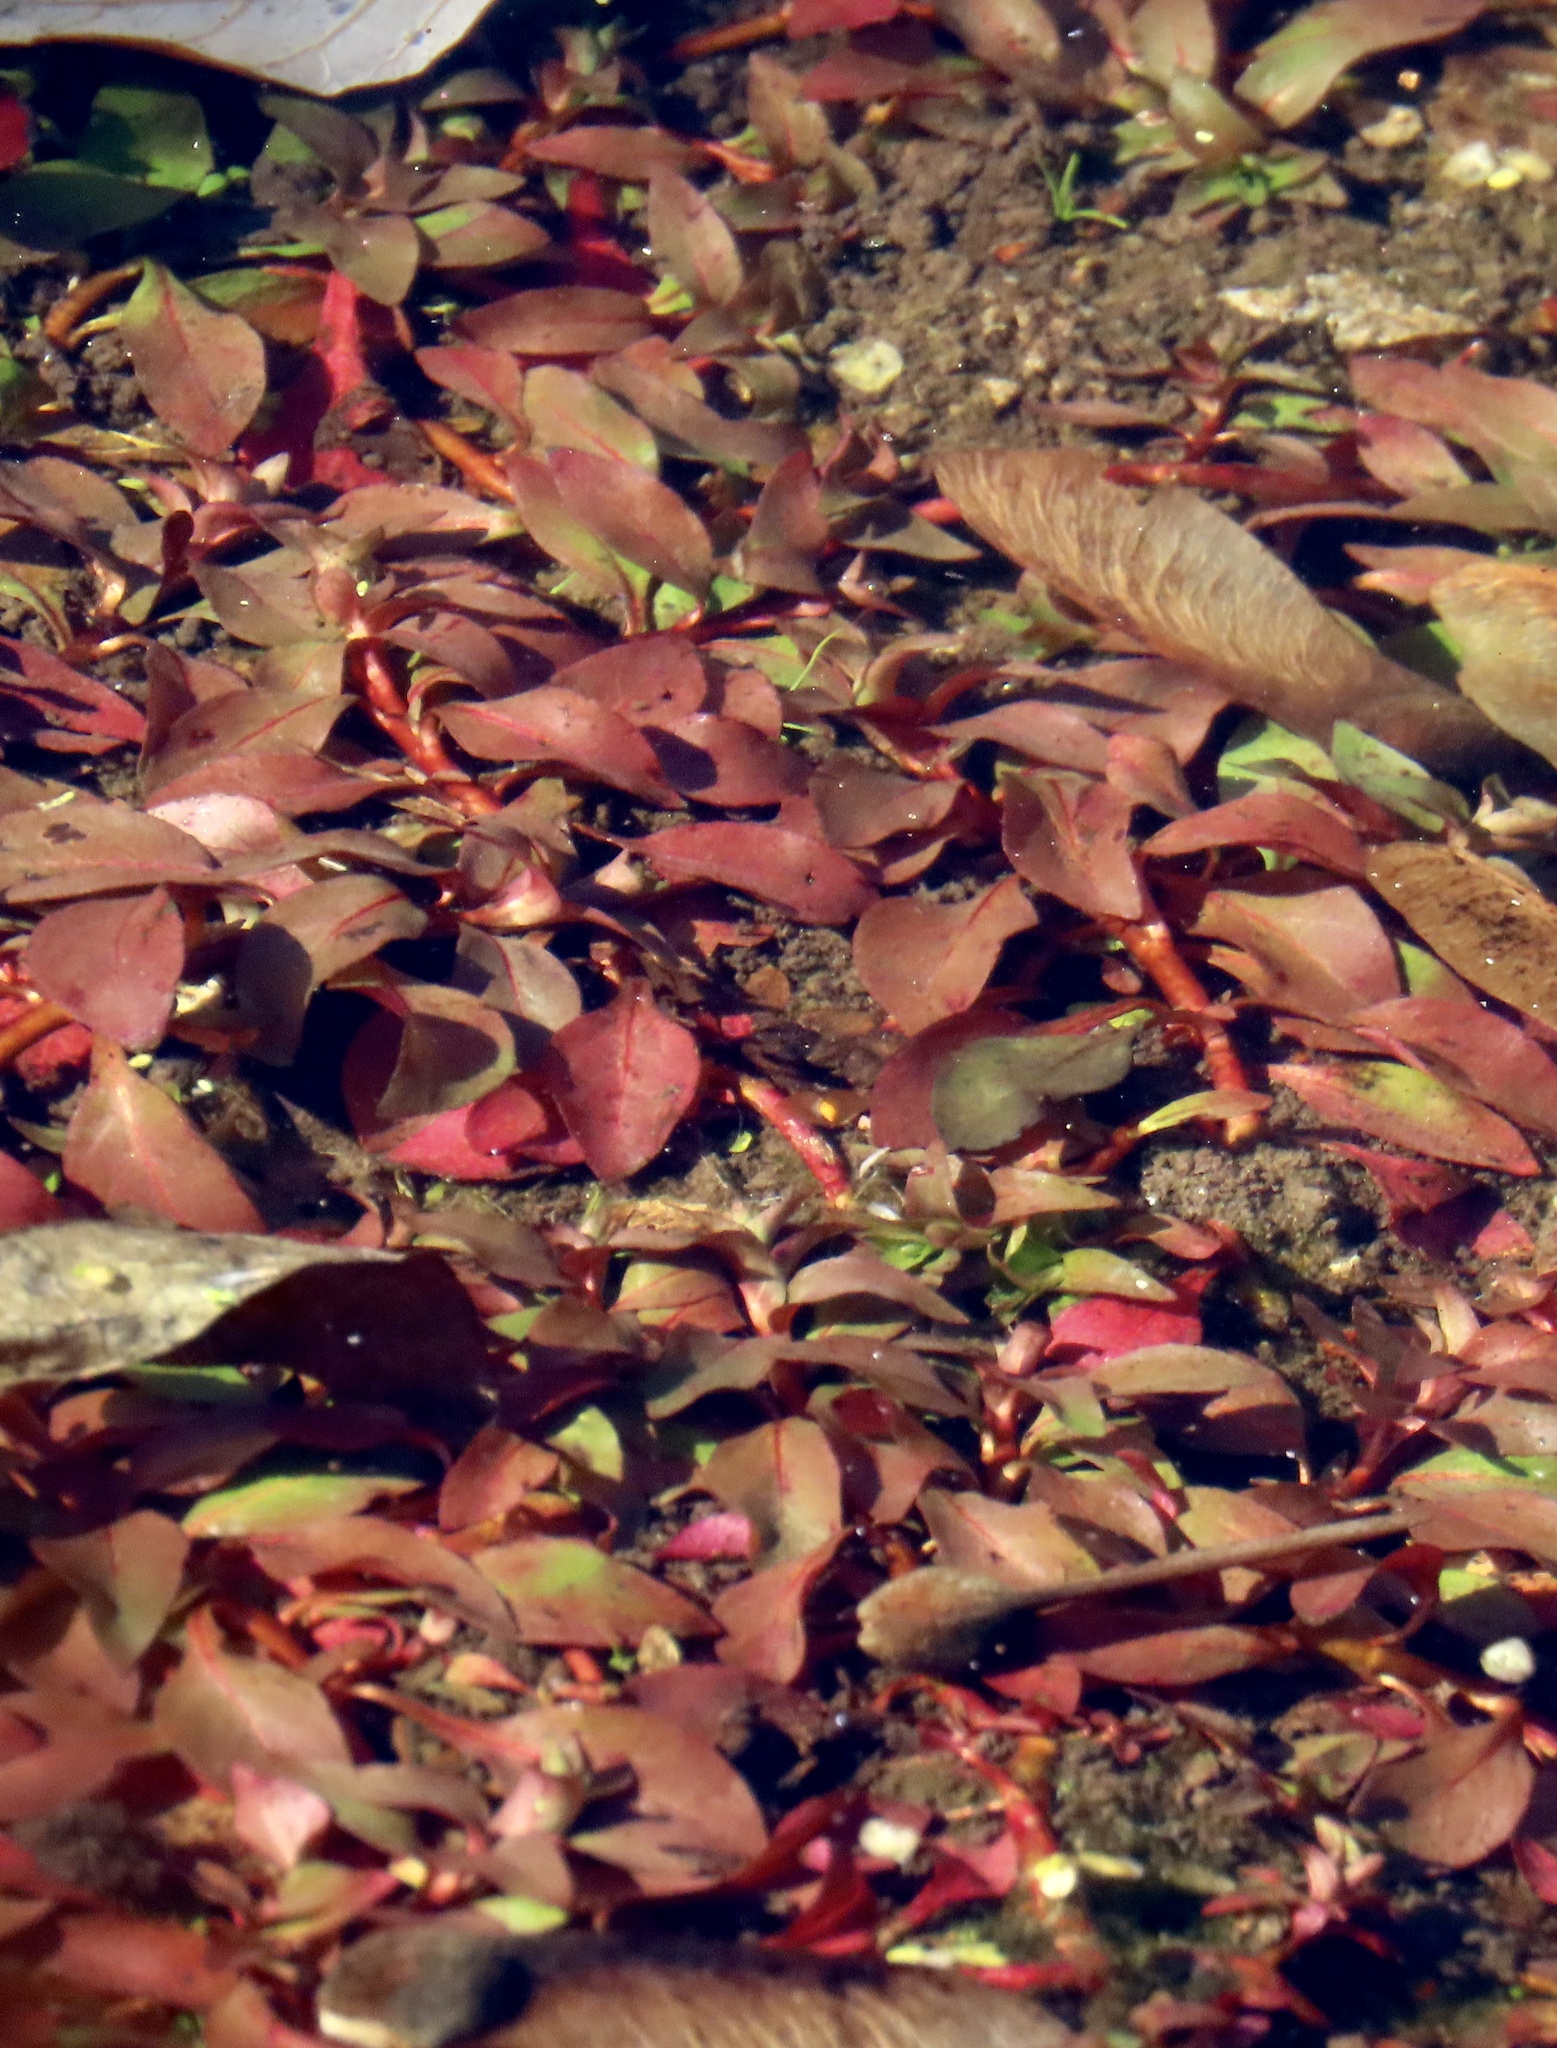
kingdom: Plantae
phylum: Tracheophyta
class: Magnoliopsida
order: Myrtales
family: Onagraceae
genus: Ludwigia
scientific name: Ludwigia palustris
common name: Hampshire-purslane
